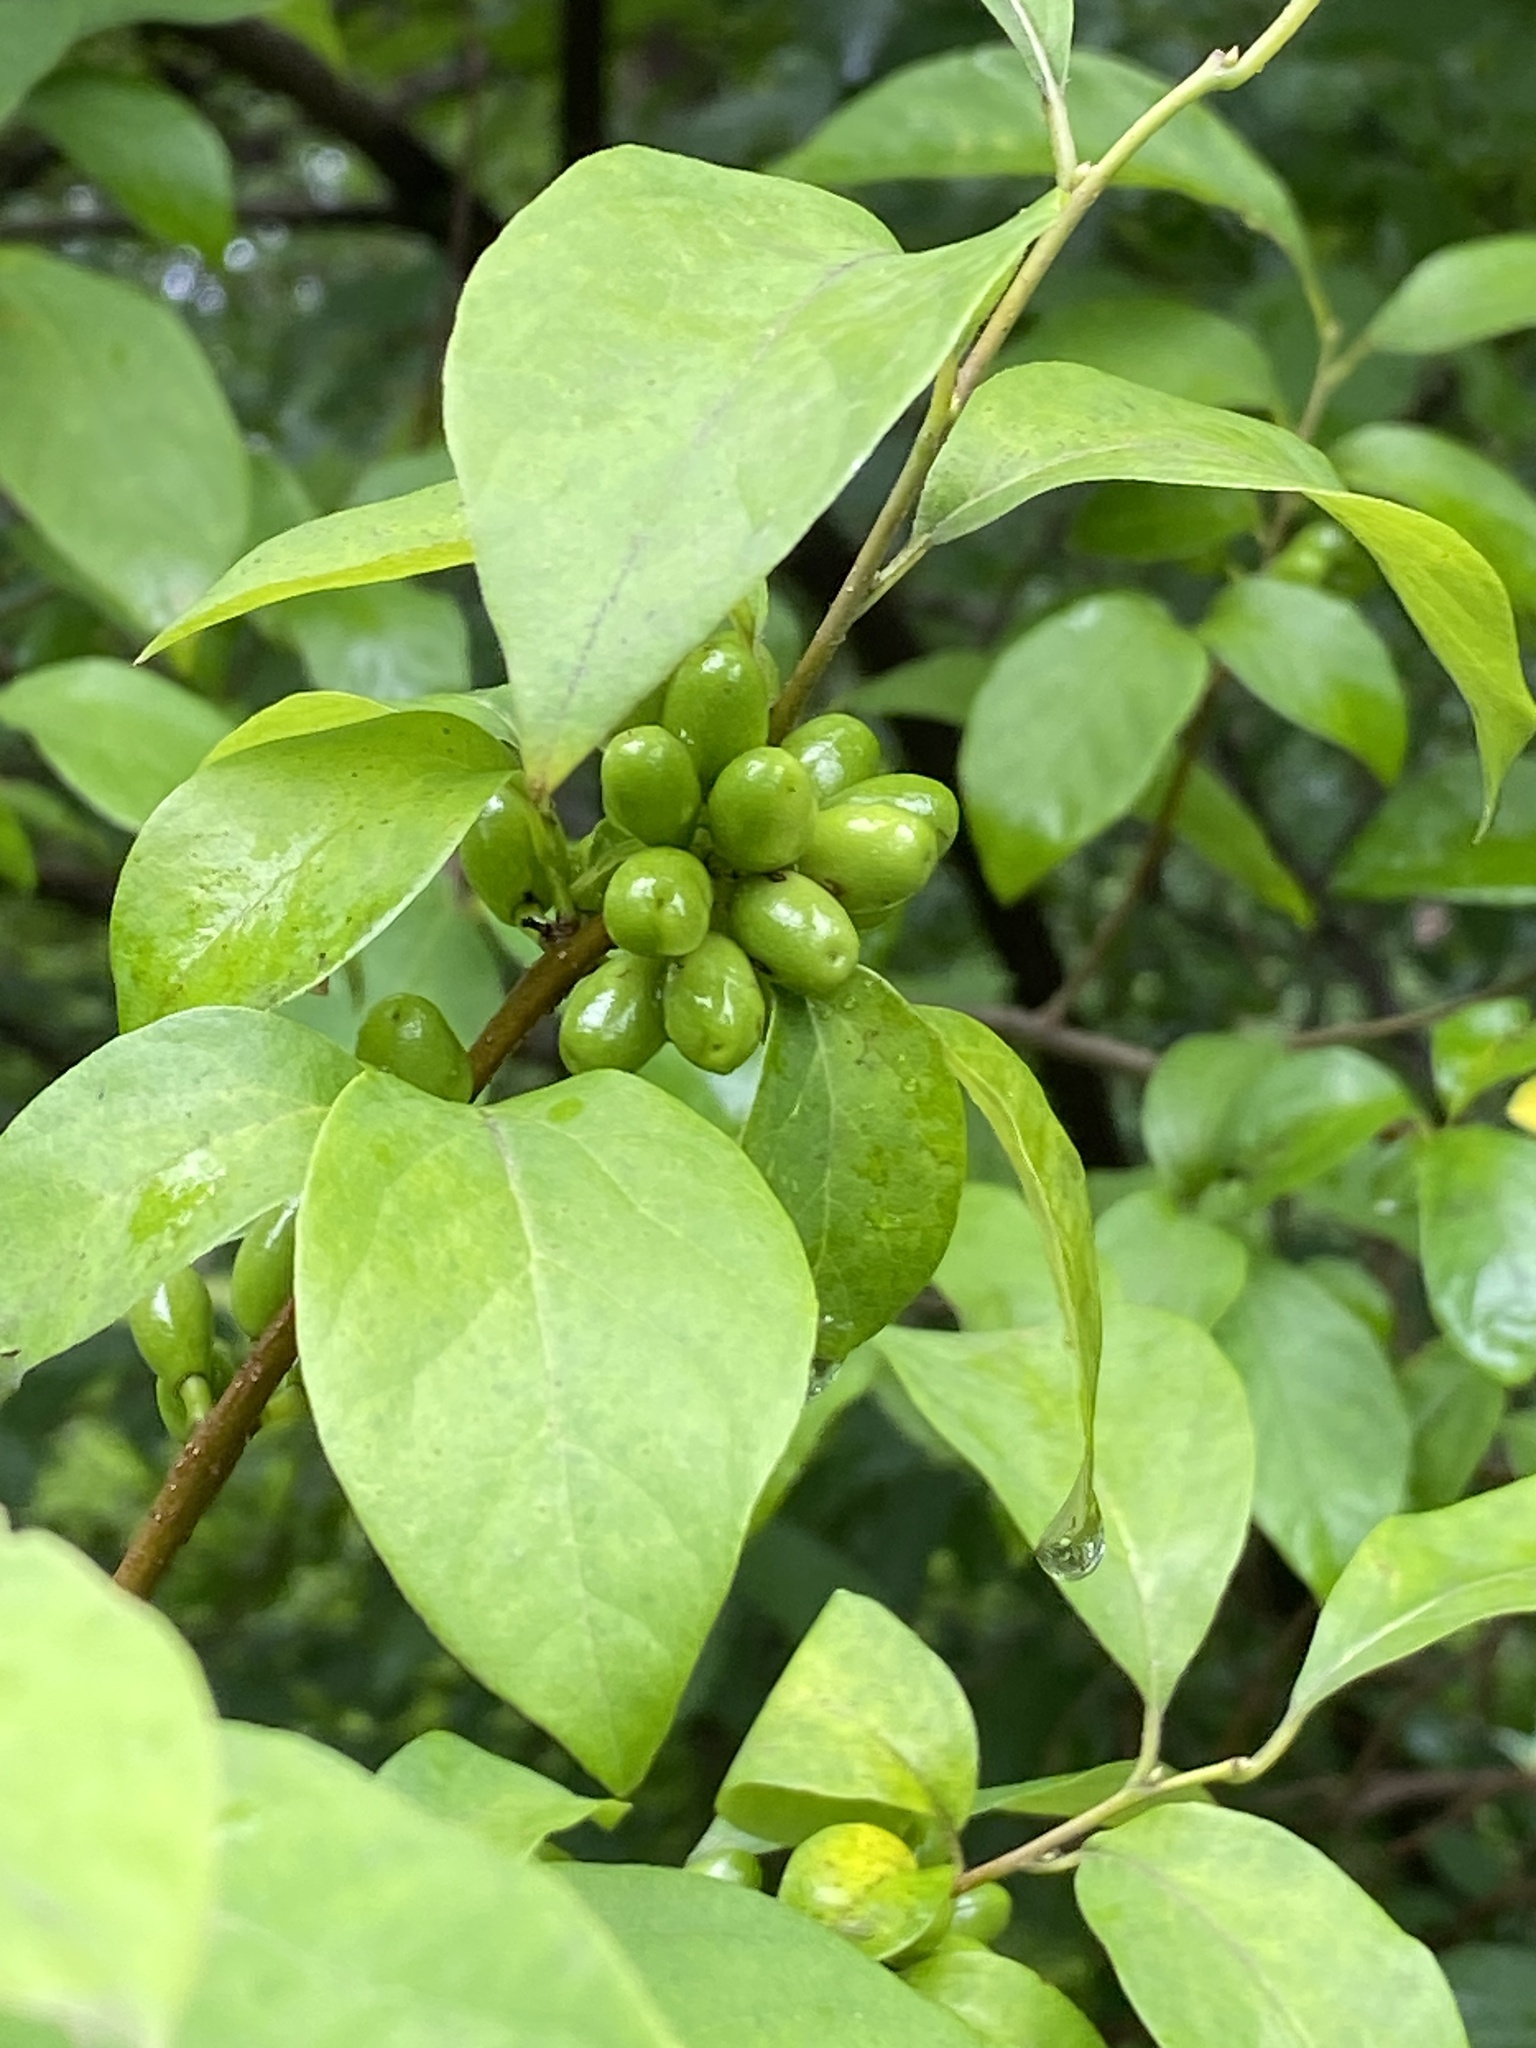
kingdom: Plantae
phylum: Tracheophyta
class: Magnoliopsida
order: Laurales
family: Lauraceae
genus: Lindera
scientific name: Lindera benzoin
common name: Spicebush
